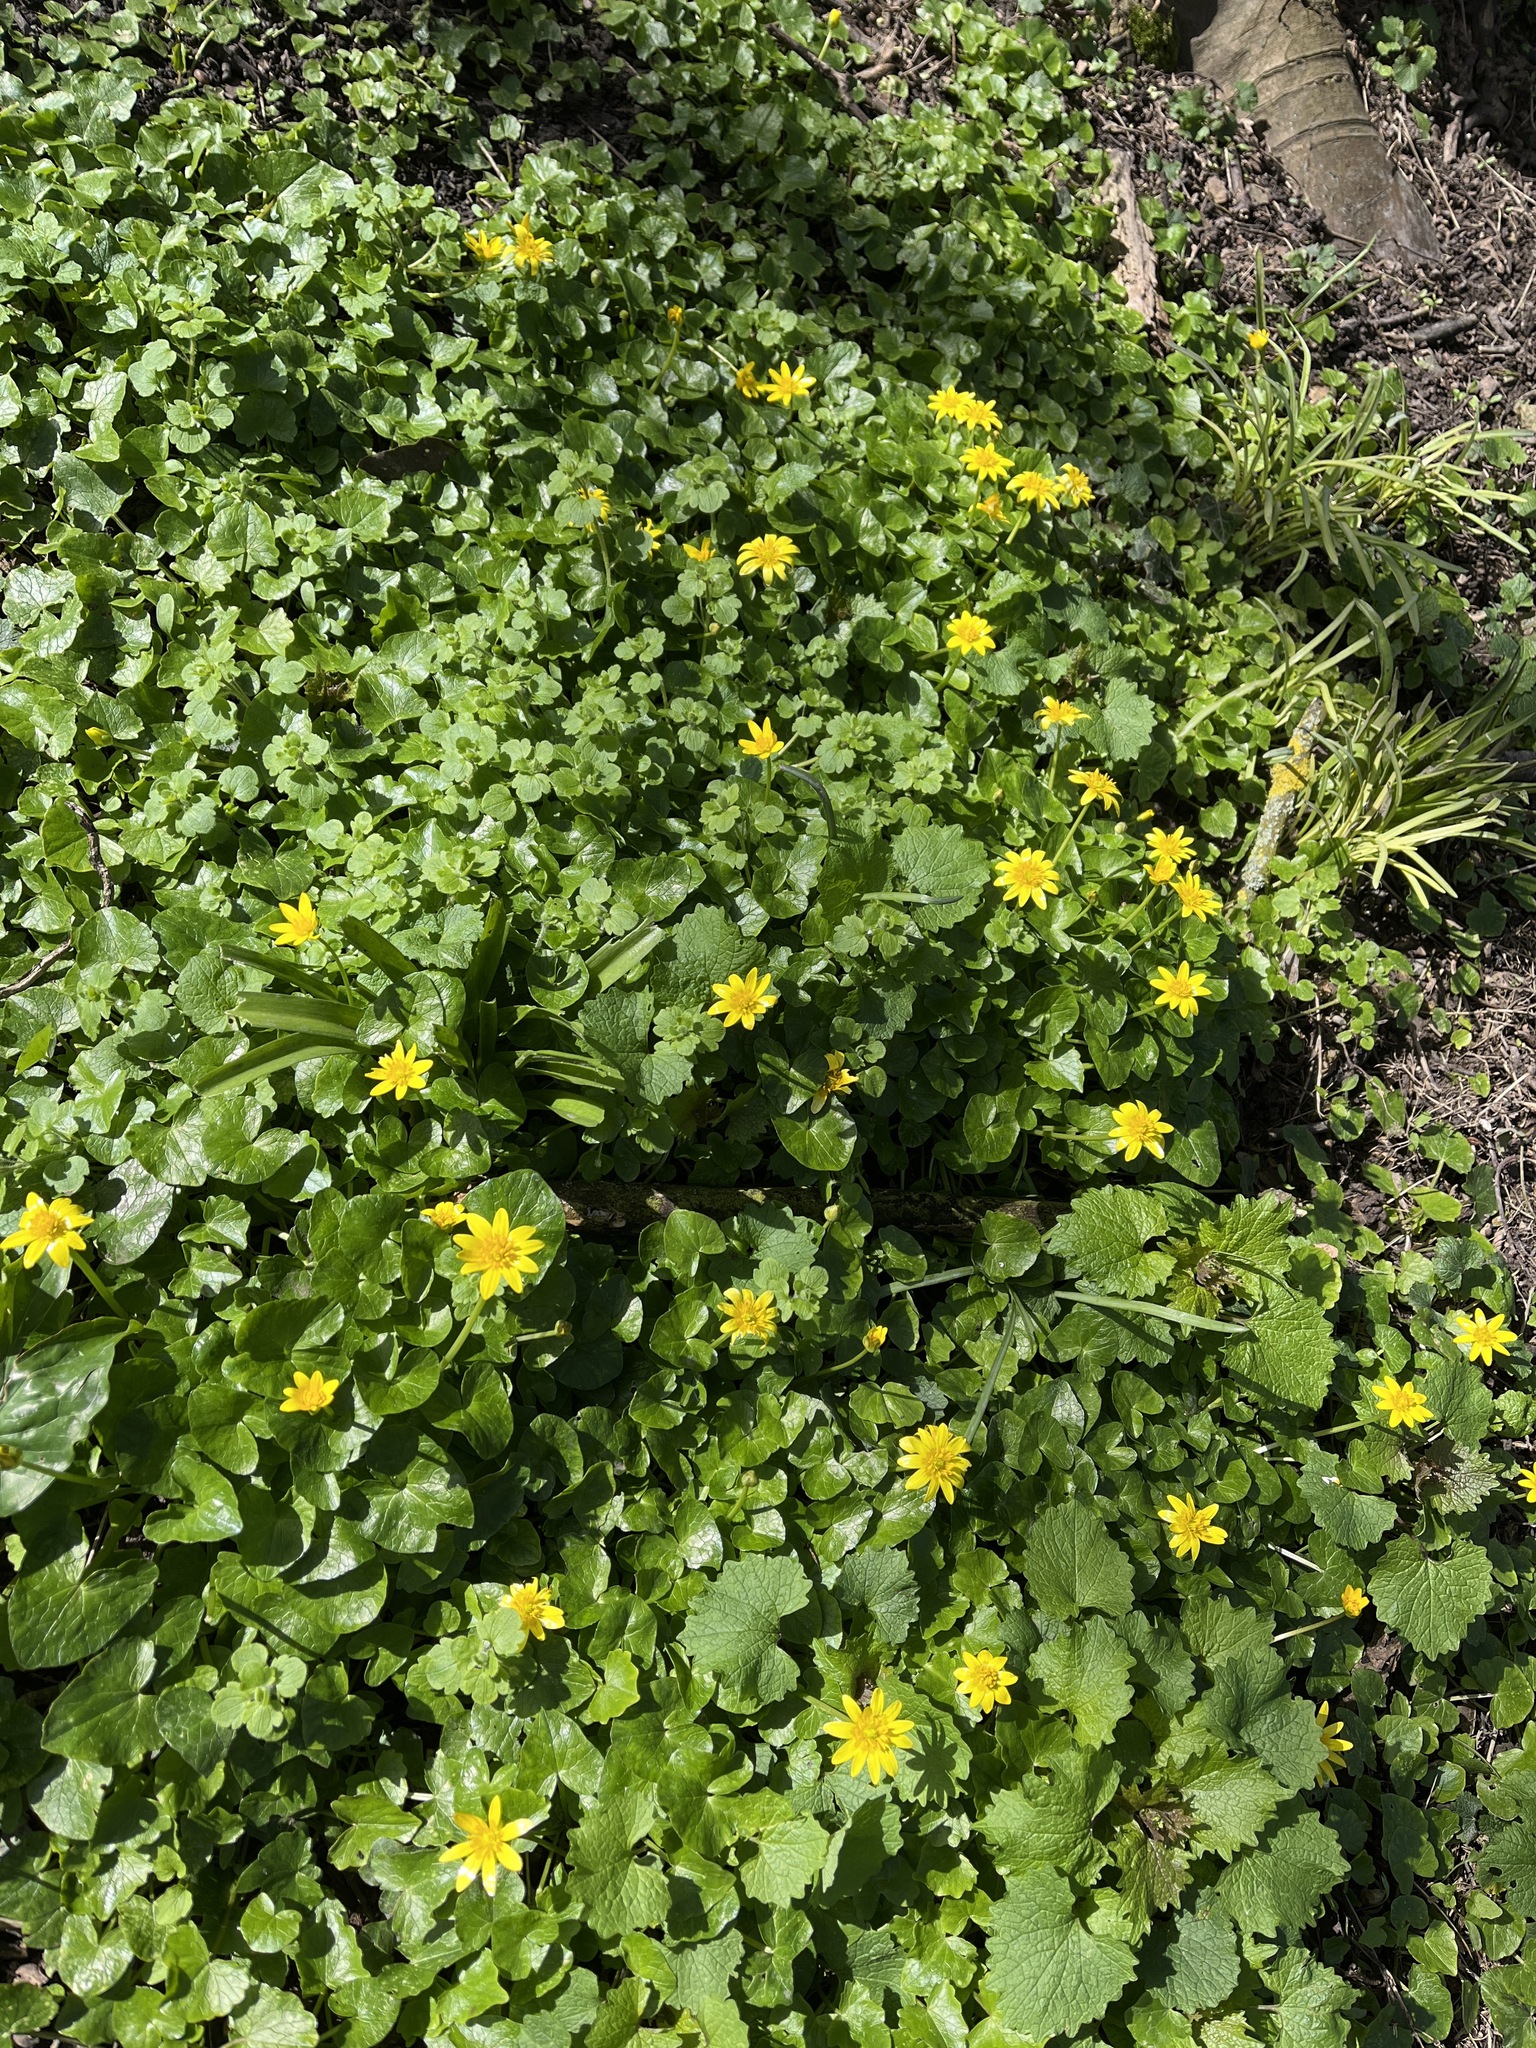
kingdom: Plantae
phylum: Tracheophyta
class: Magnoliopsida
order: Ranunculales
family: Ranunculaceae
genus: Ficaria
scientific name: Ficaria verna
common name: Lesser celandine
